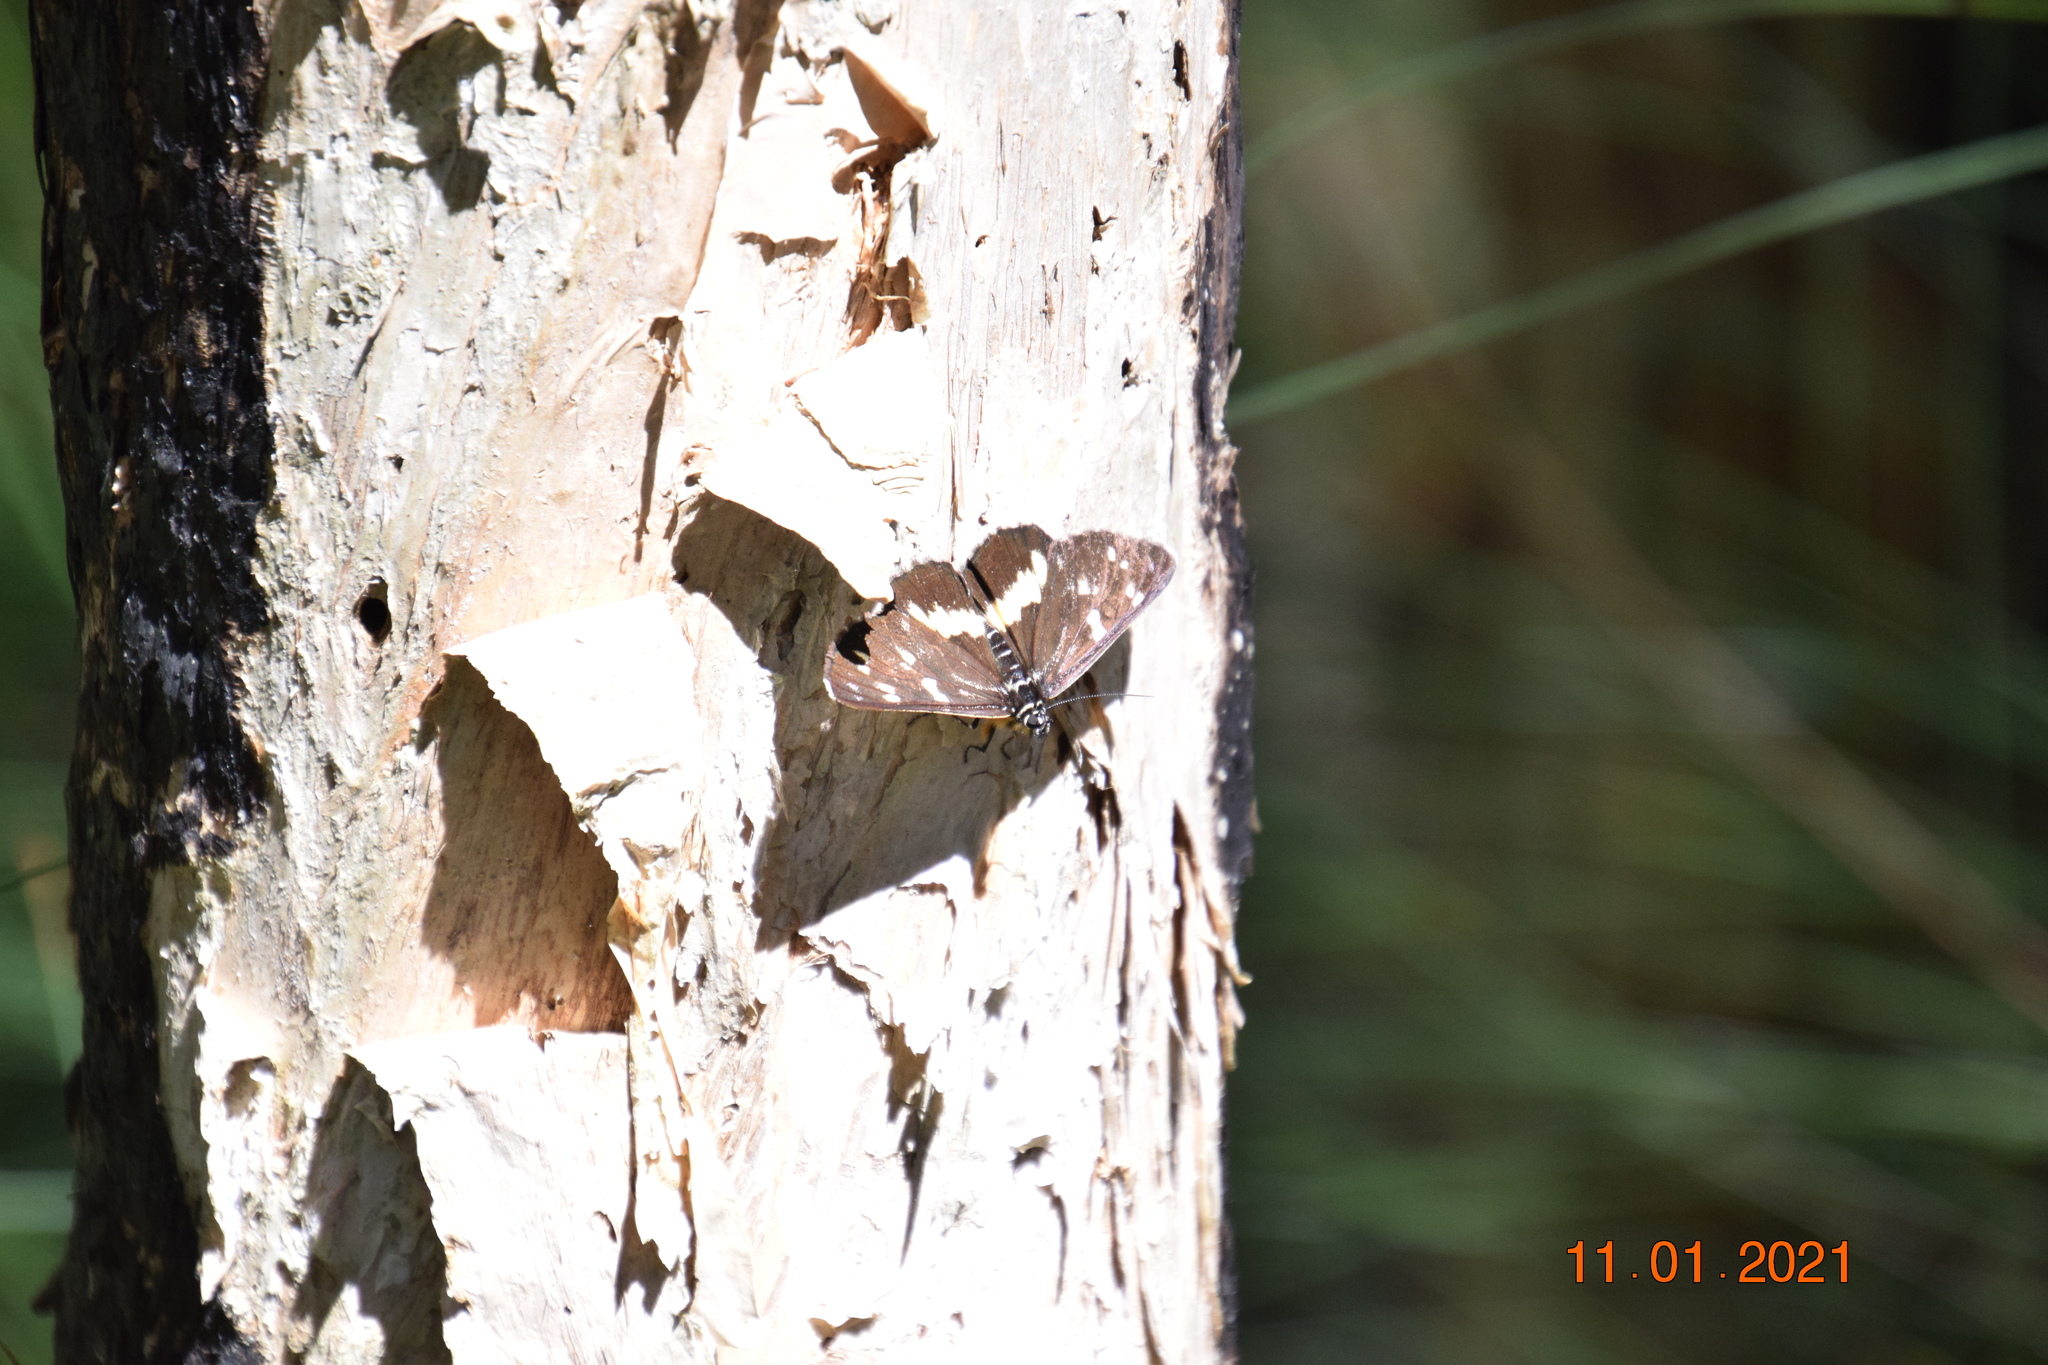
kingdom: Animalia
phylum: Arthropoda
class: Insecta
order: Lepidoptera
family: Noctuidae
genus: Cruria
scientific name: Cruria synopla
